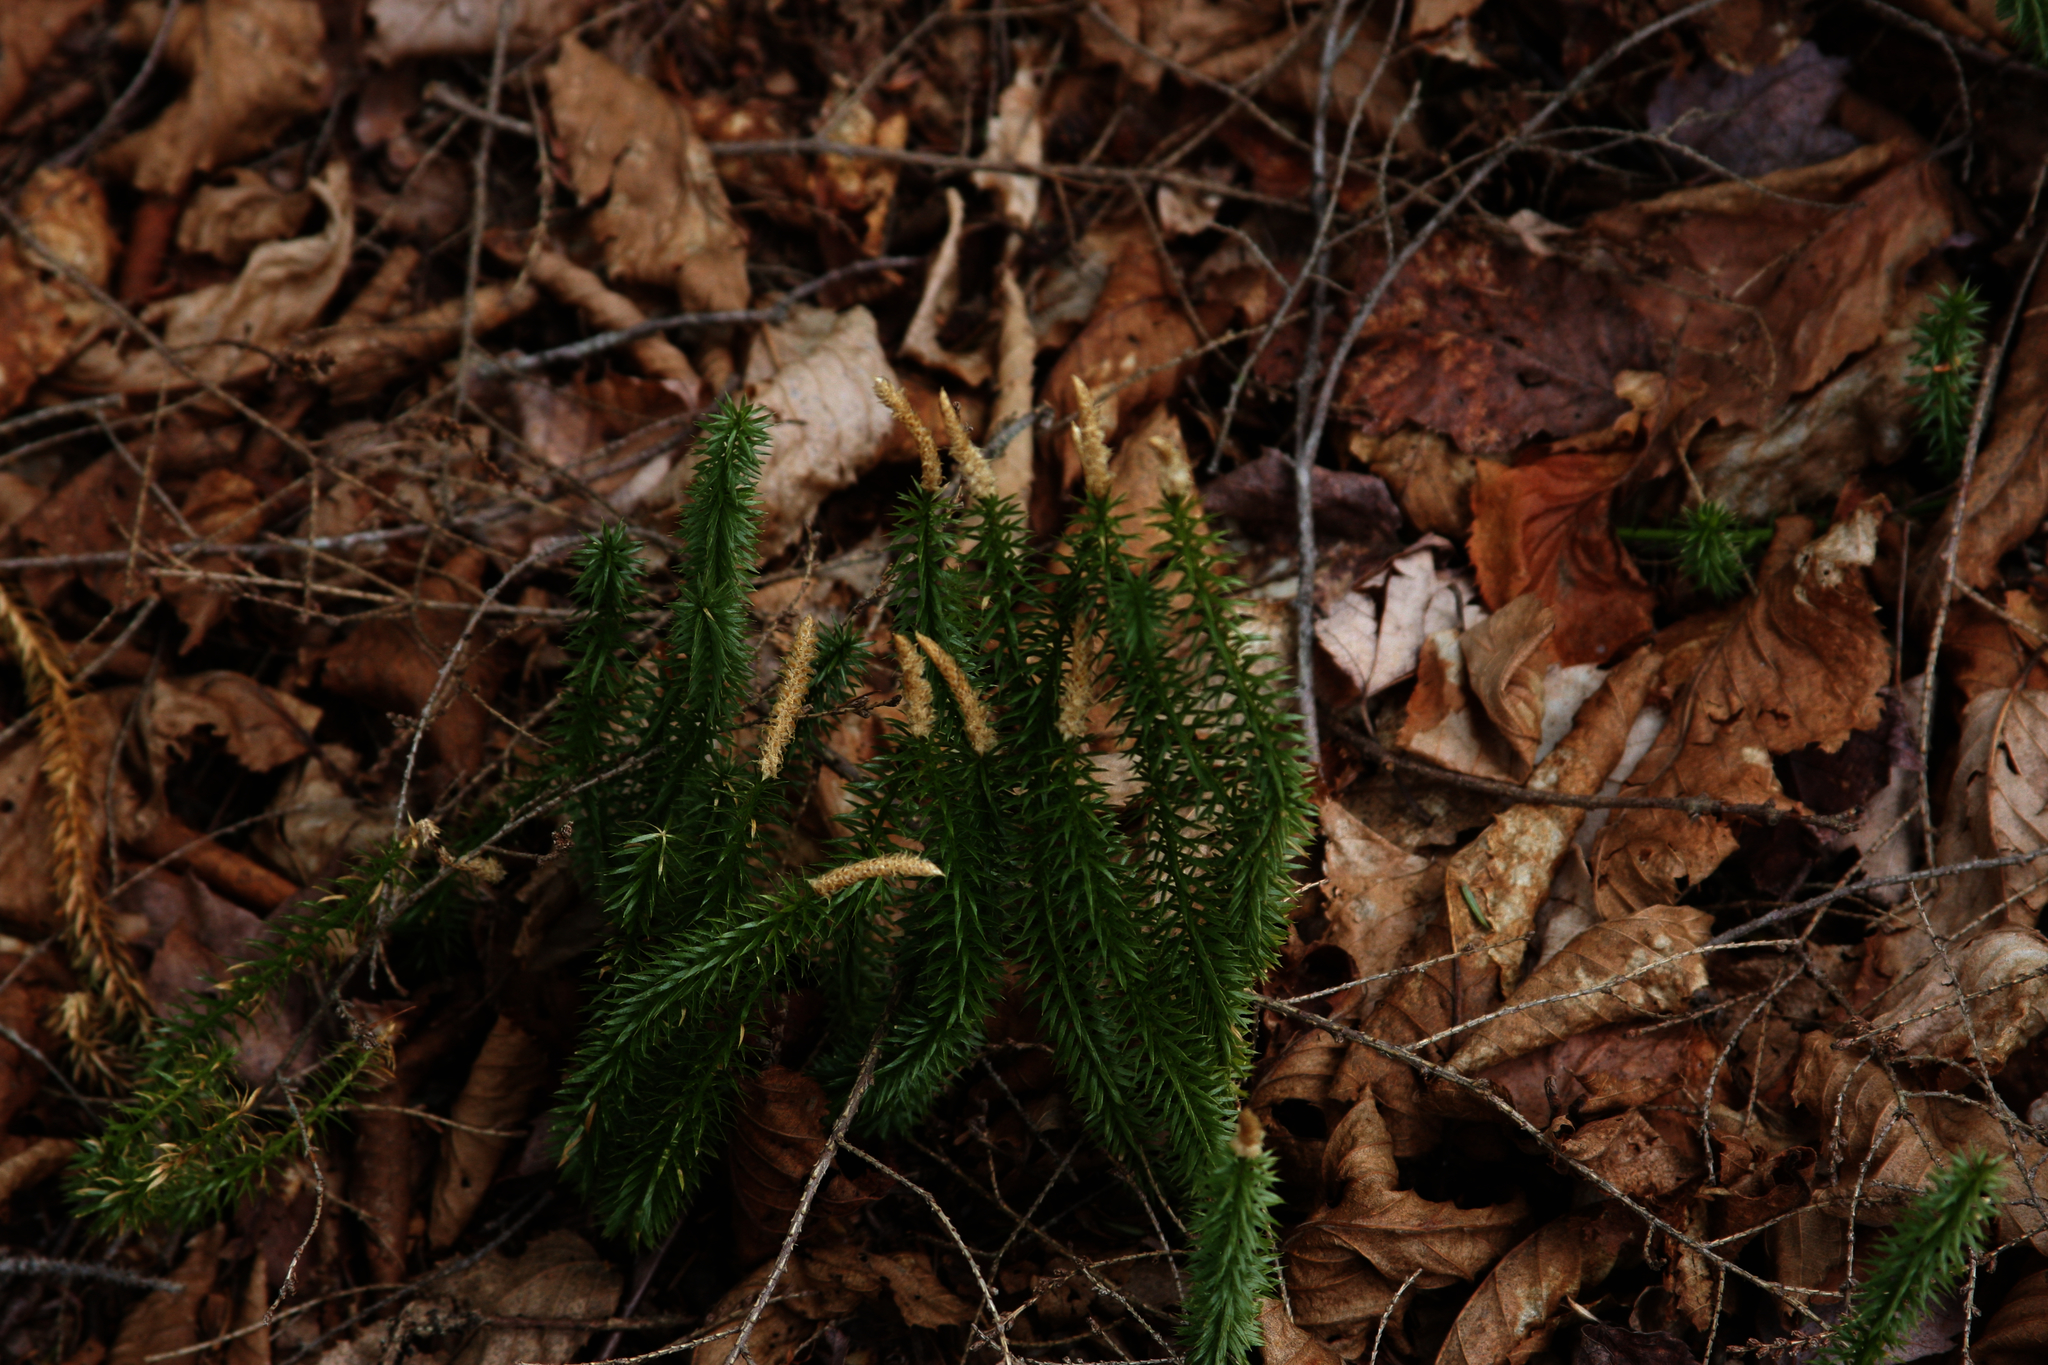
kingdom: Plantae
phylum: Tracheophyta
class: Lycopodiopsida
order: Lycopodiales
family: Lycopodiaceae
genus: Spinulum
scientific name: Spinulum annotinum
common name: Interrupted club-moss
